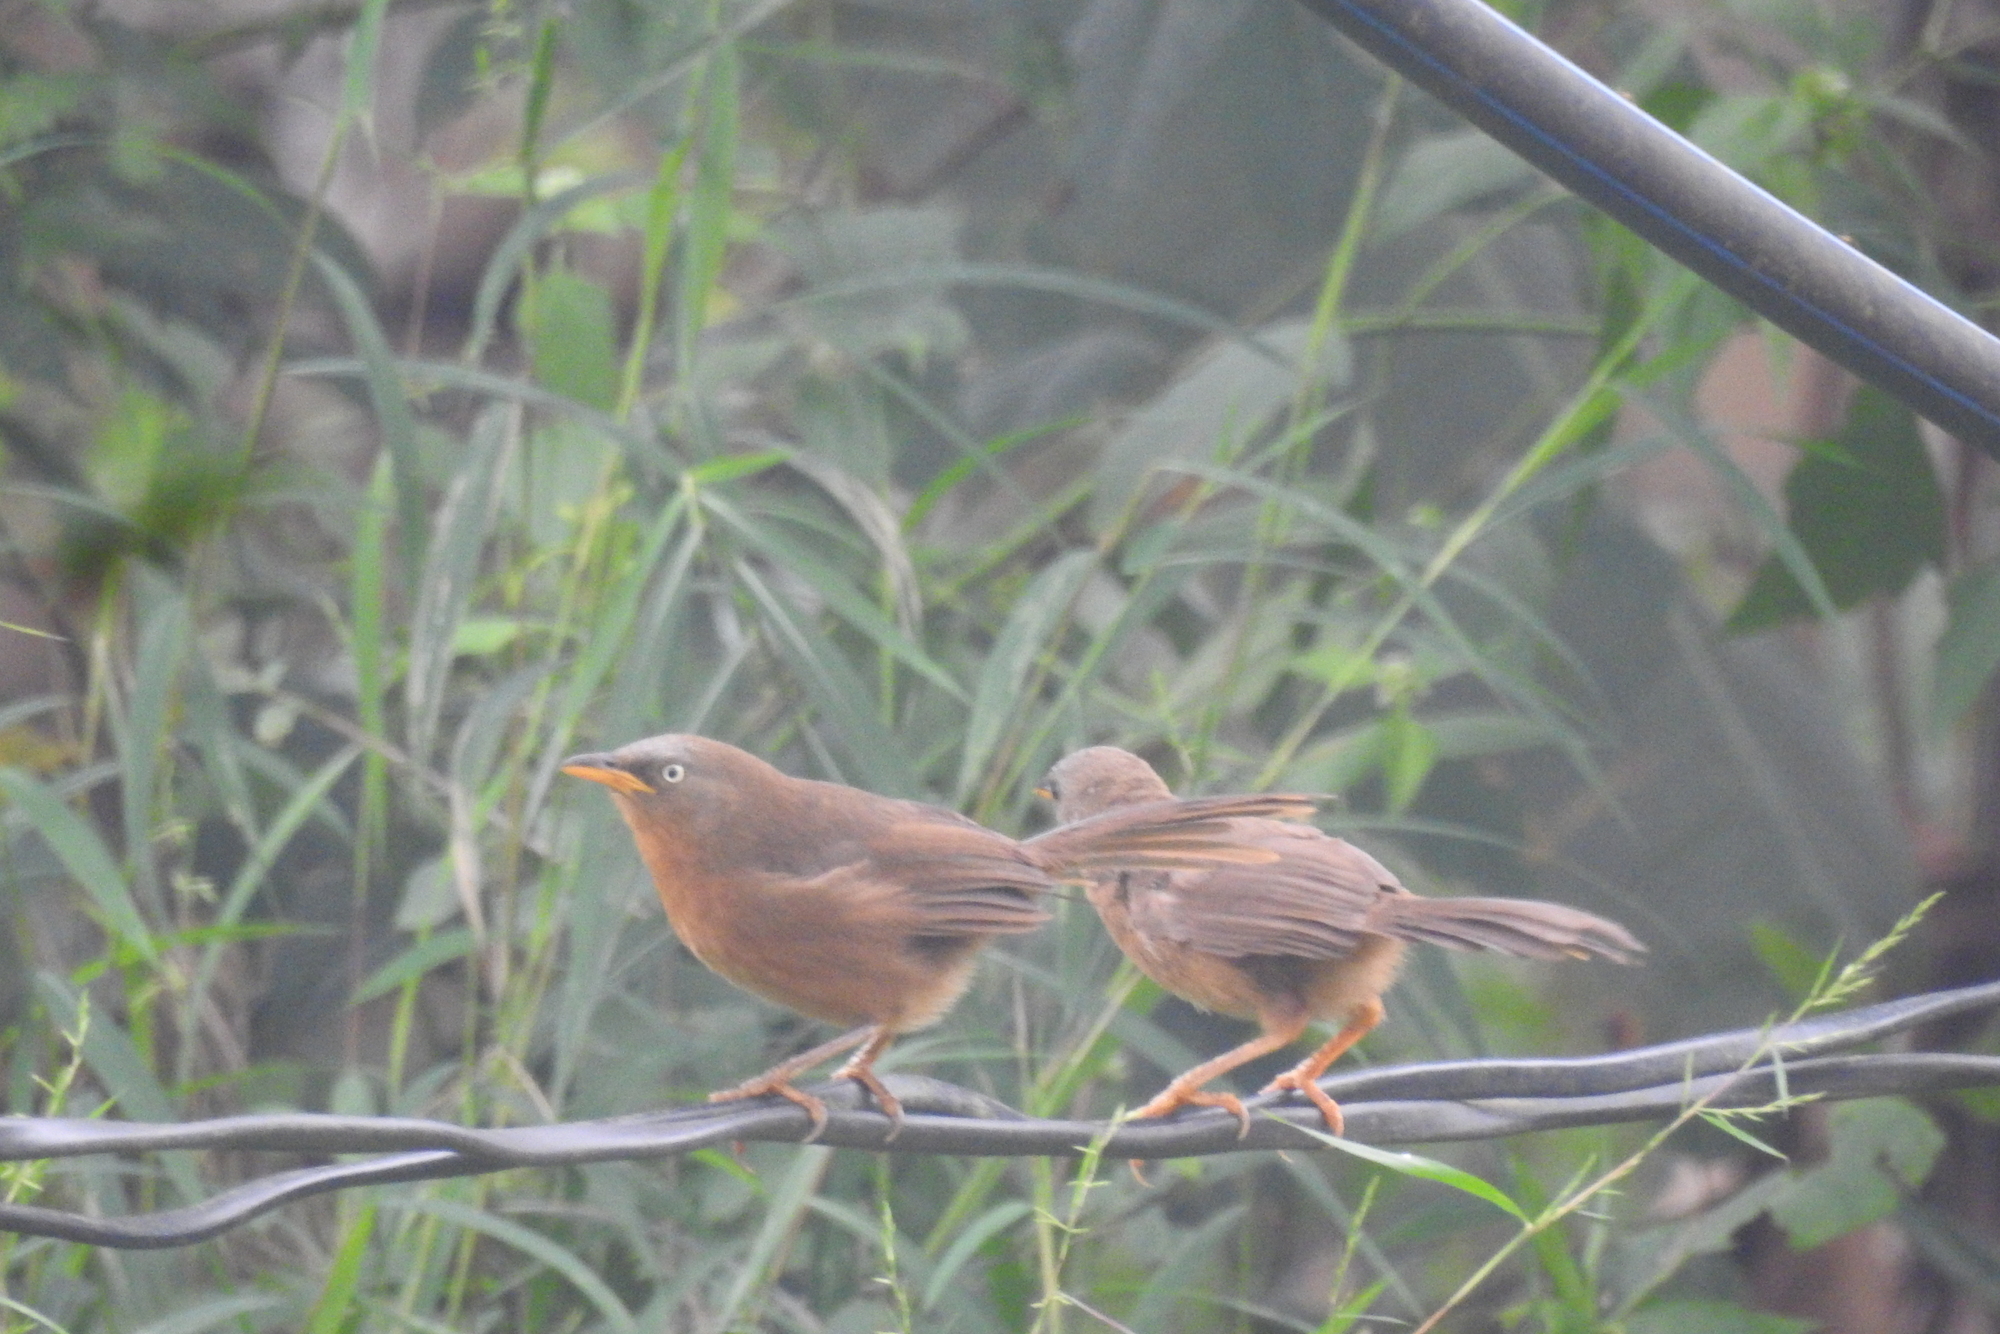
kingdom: Animalia
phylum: Chordata
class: Aves
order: Passeriformes
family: Leiothrichidae
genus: Turdoides
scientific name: Turdoides subrufa
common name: Rufous babbler
